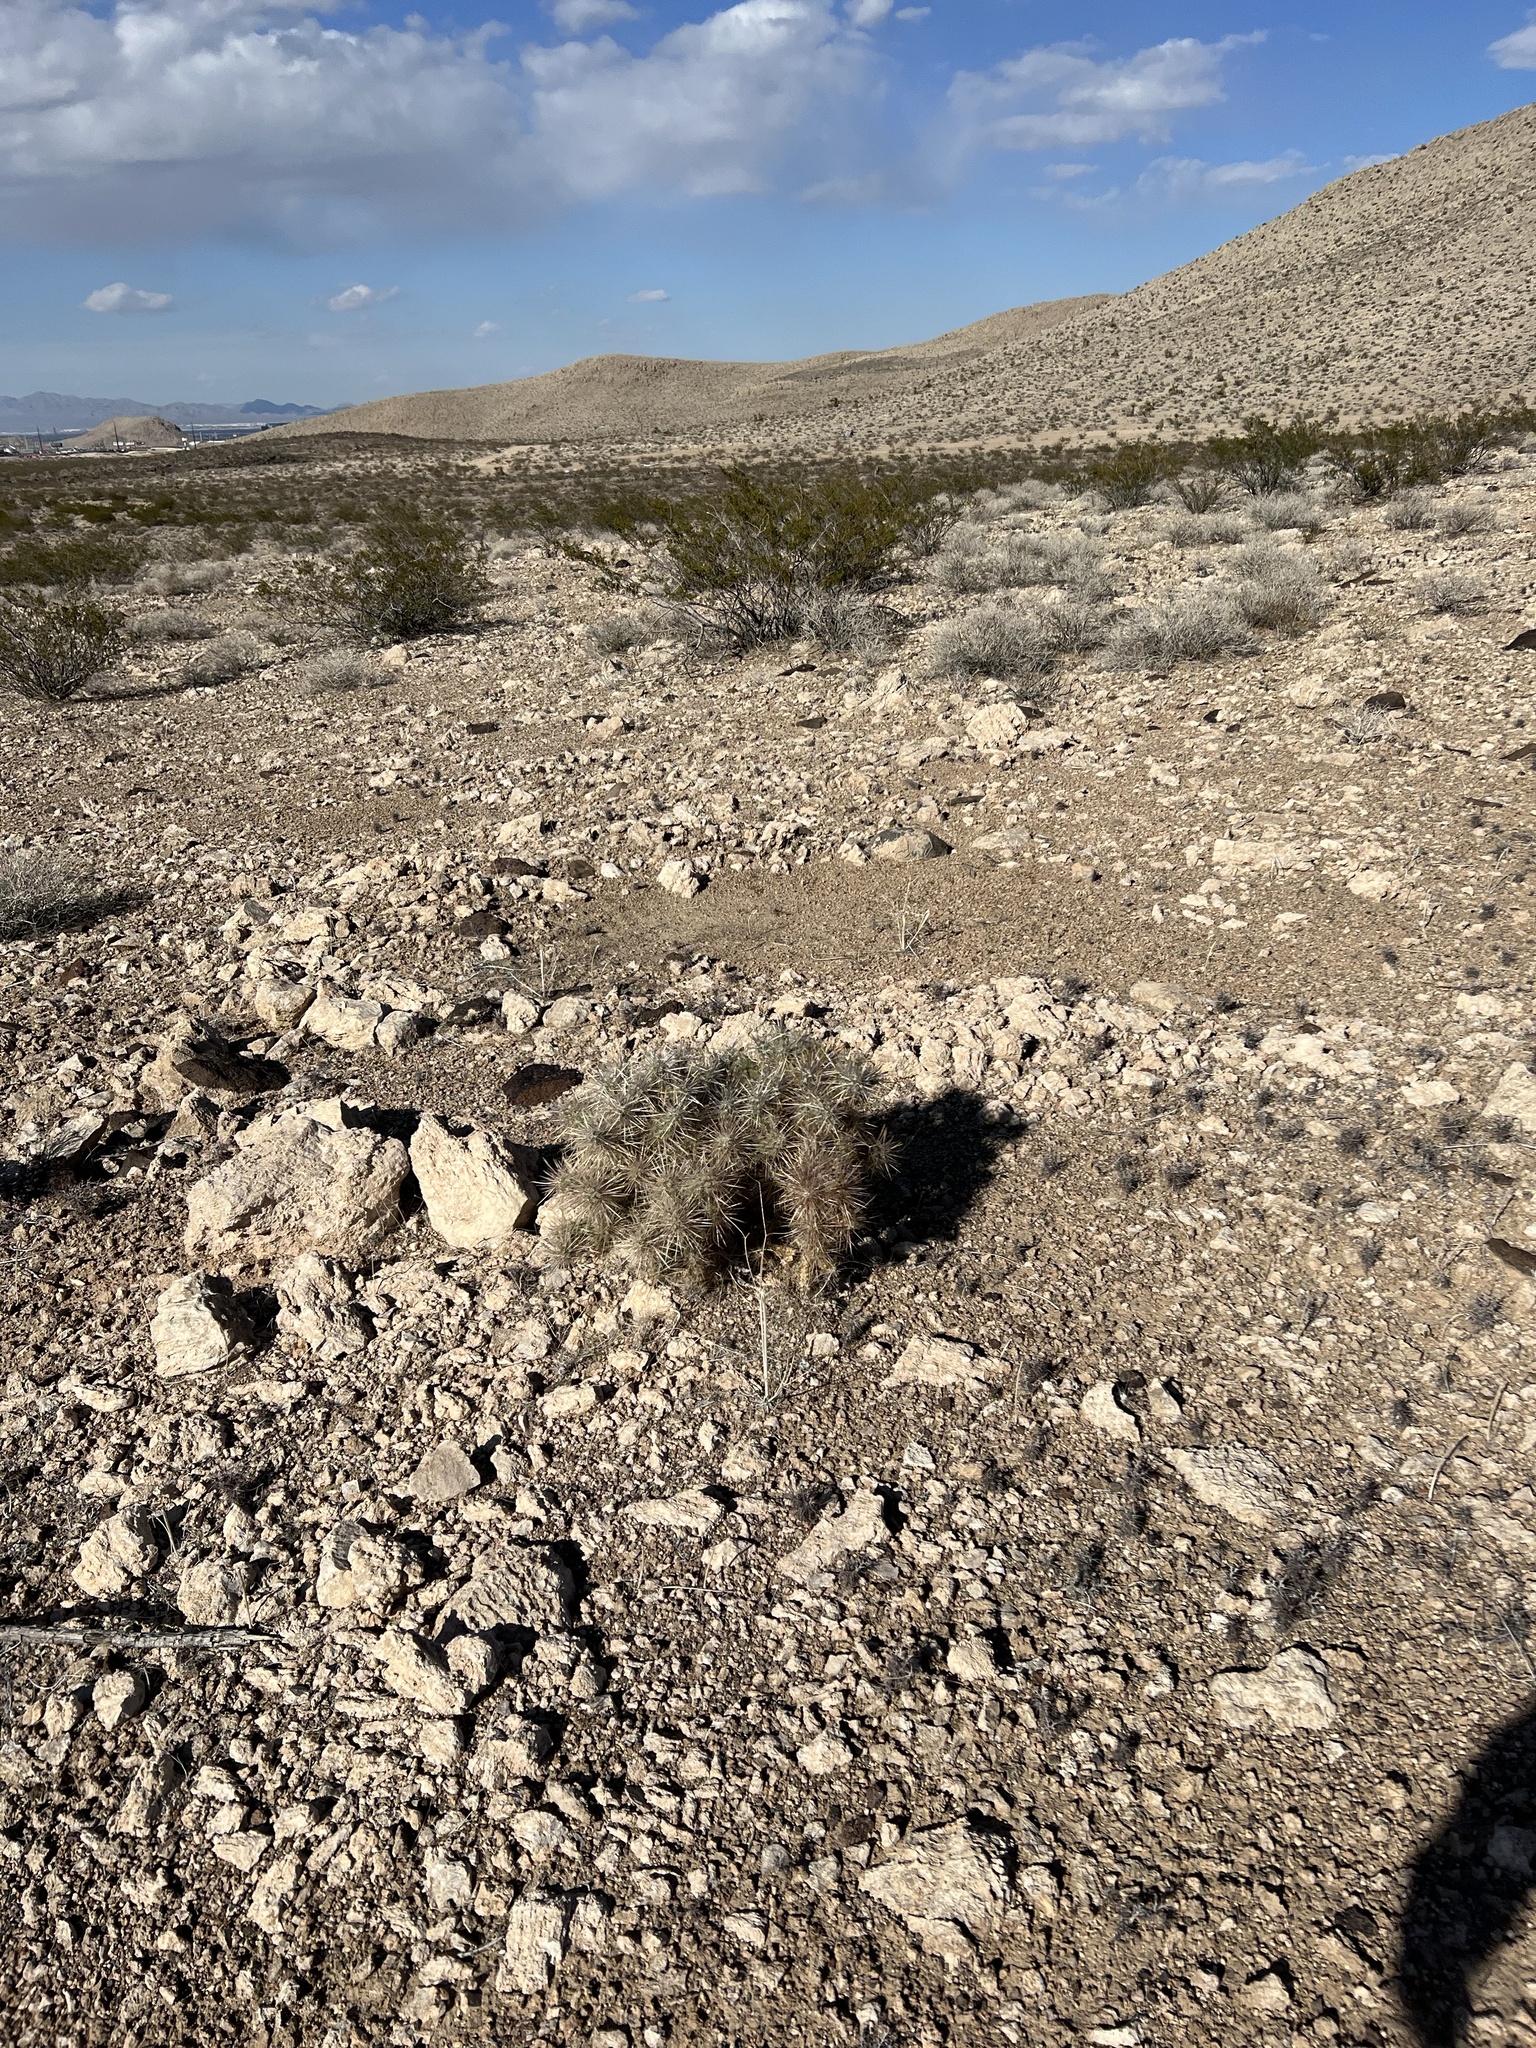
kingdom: Plantae
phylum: Tracheophyta
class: Magnoliopsida
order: Caryophyllales
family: Cactaceae
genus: Cylindropuntia
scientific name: Cylindropuntia echinocarpa
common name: Ground cholla
